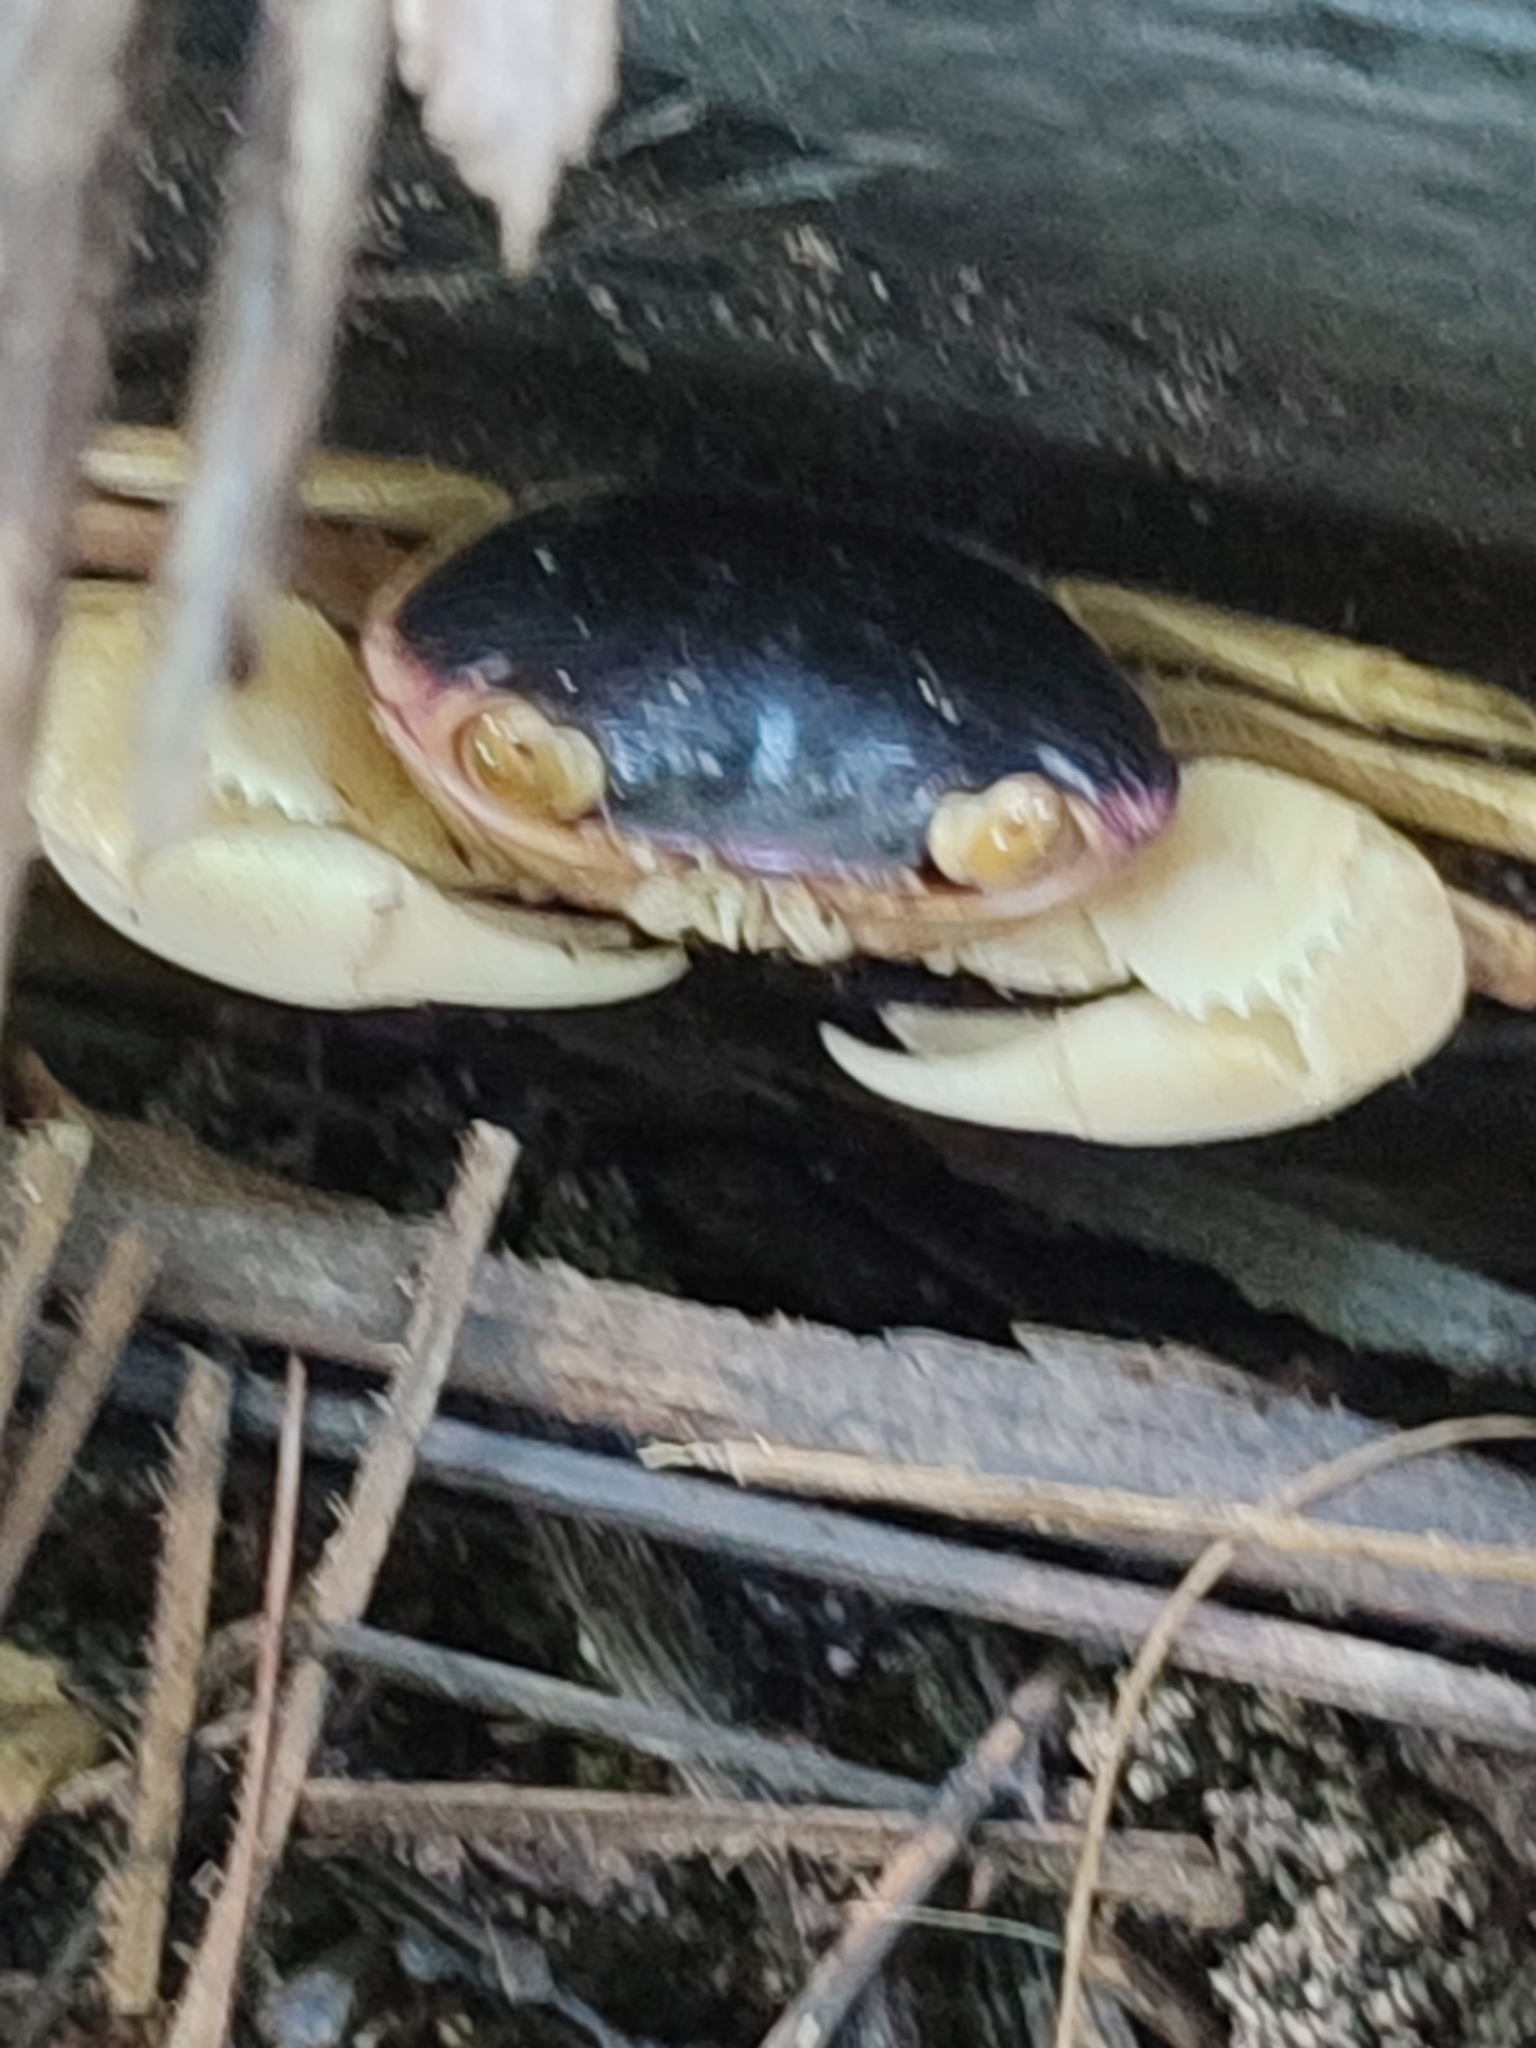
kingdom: Animalia
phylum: Arthropoda
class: Malacostraca
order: Decapoda
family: Grapsidae
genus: Geograpsus
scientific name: Geograpsus grayi
